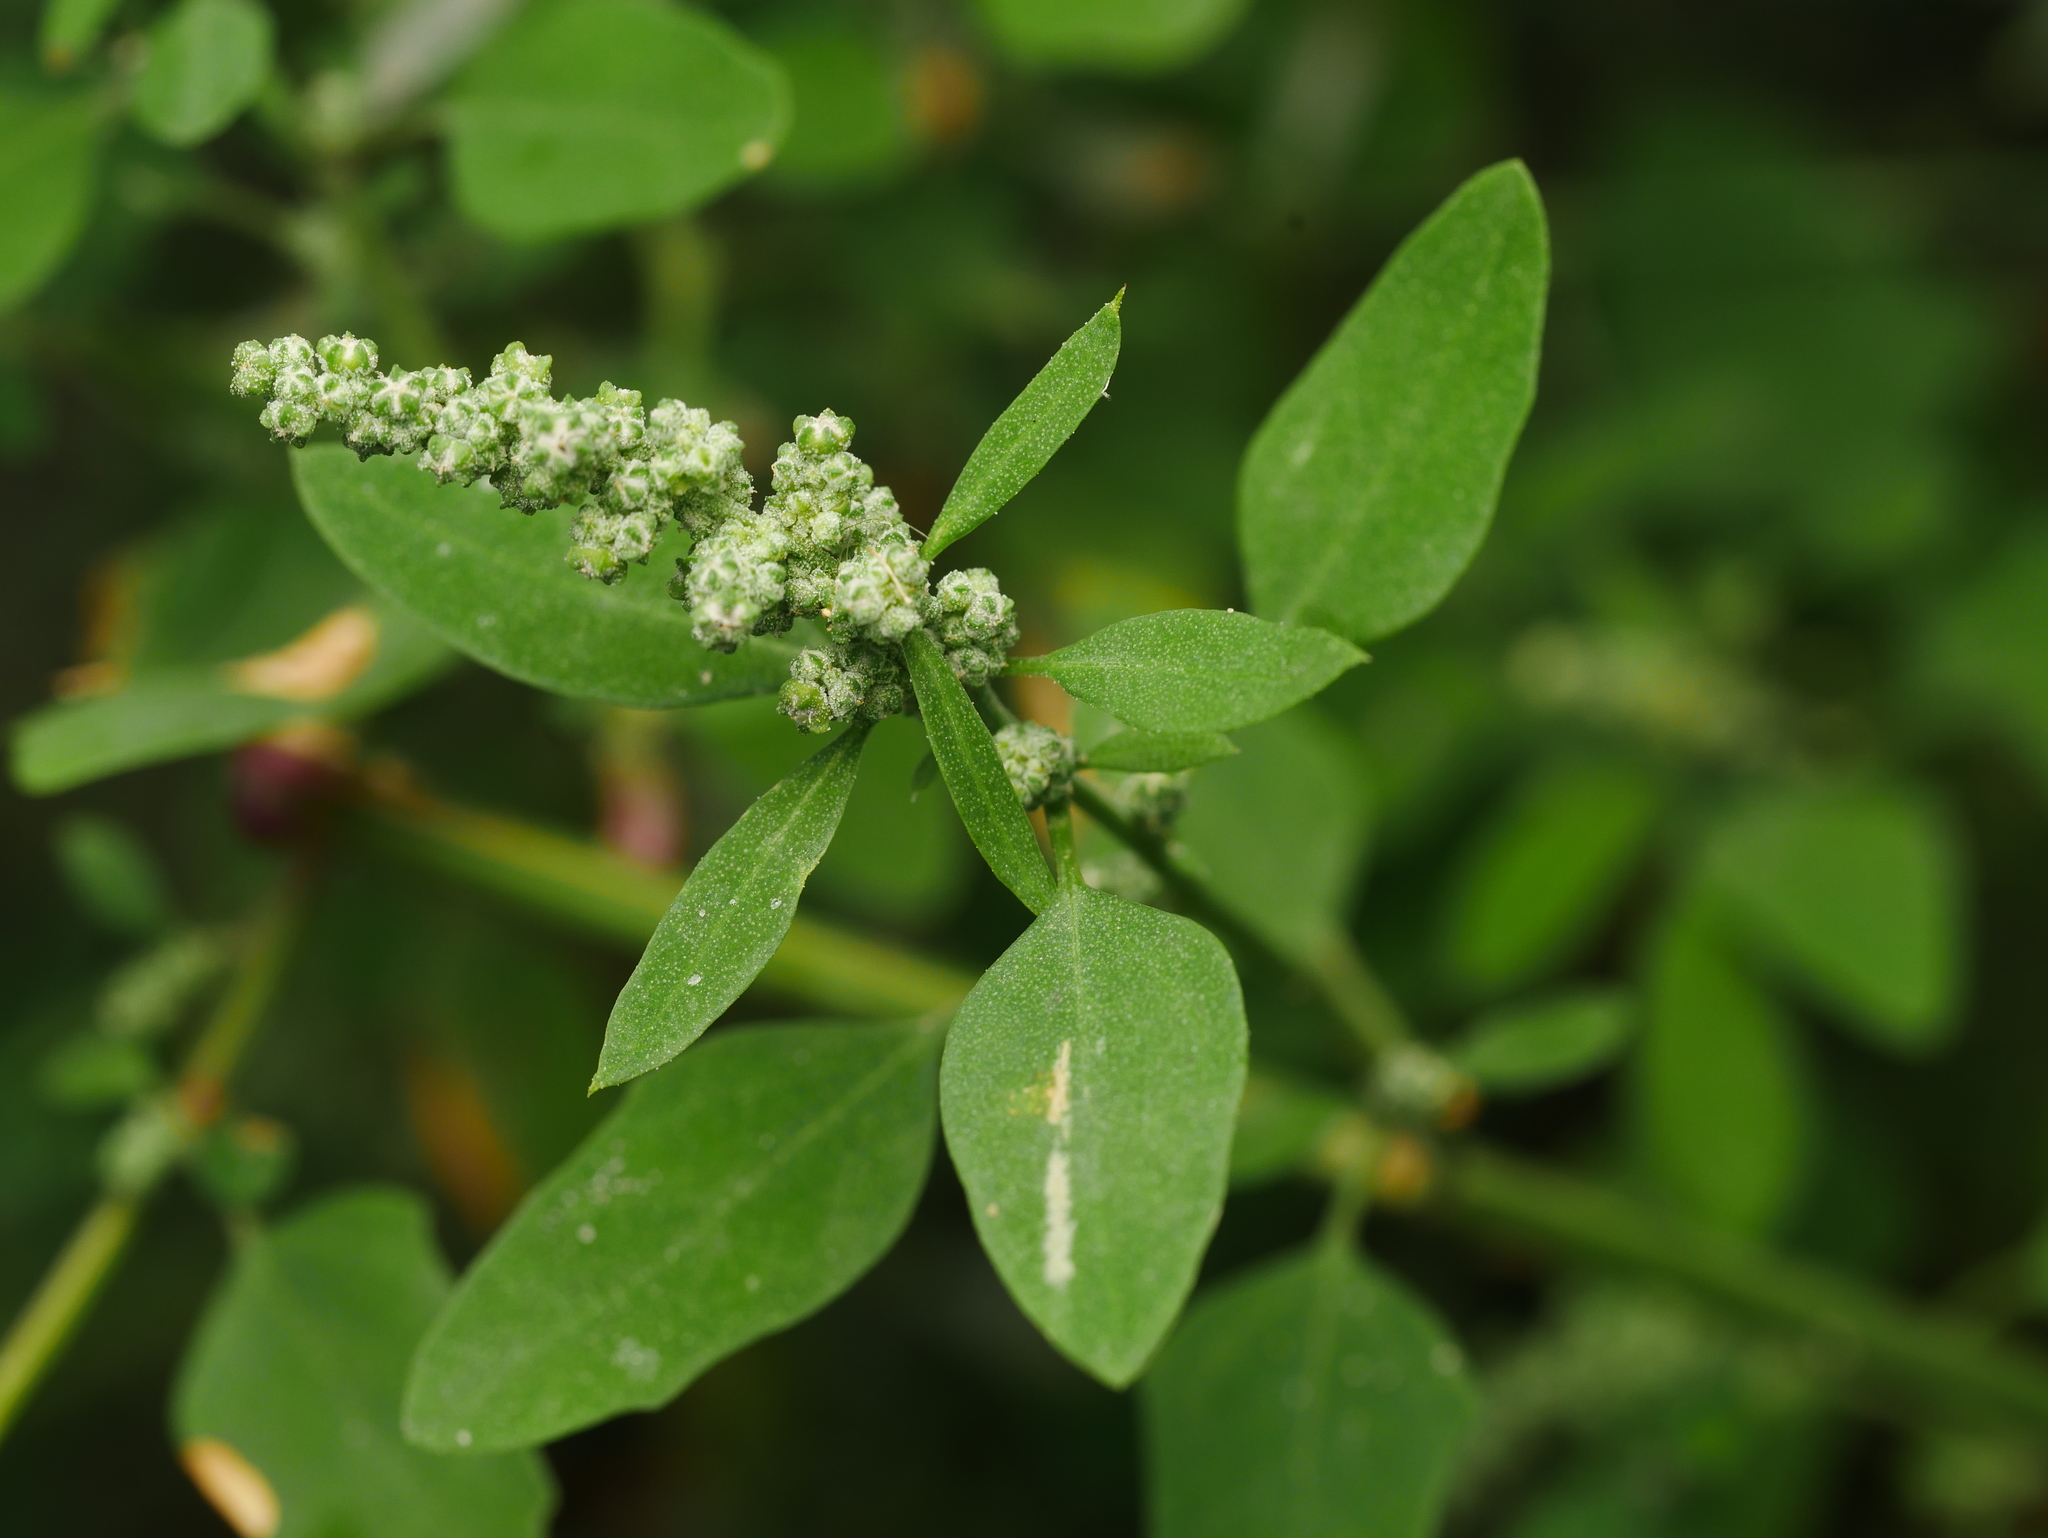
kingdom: Plantae
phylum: Tracheophyta
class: Magnoliopsida
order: Caryophyllales
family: Amaranthaceae
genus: Chenopodium
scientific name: Chenopodium album
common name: Fat-hen
